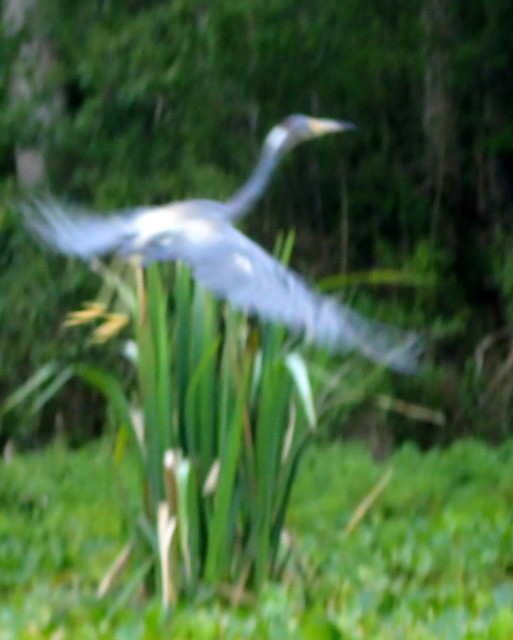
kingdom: Animalia
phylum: Chordata
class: Aves
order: Pelecaniformes
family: Ardeidae
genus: Egretta
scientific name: Egretta tricolor
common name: Tricolored heron
